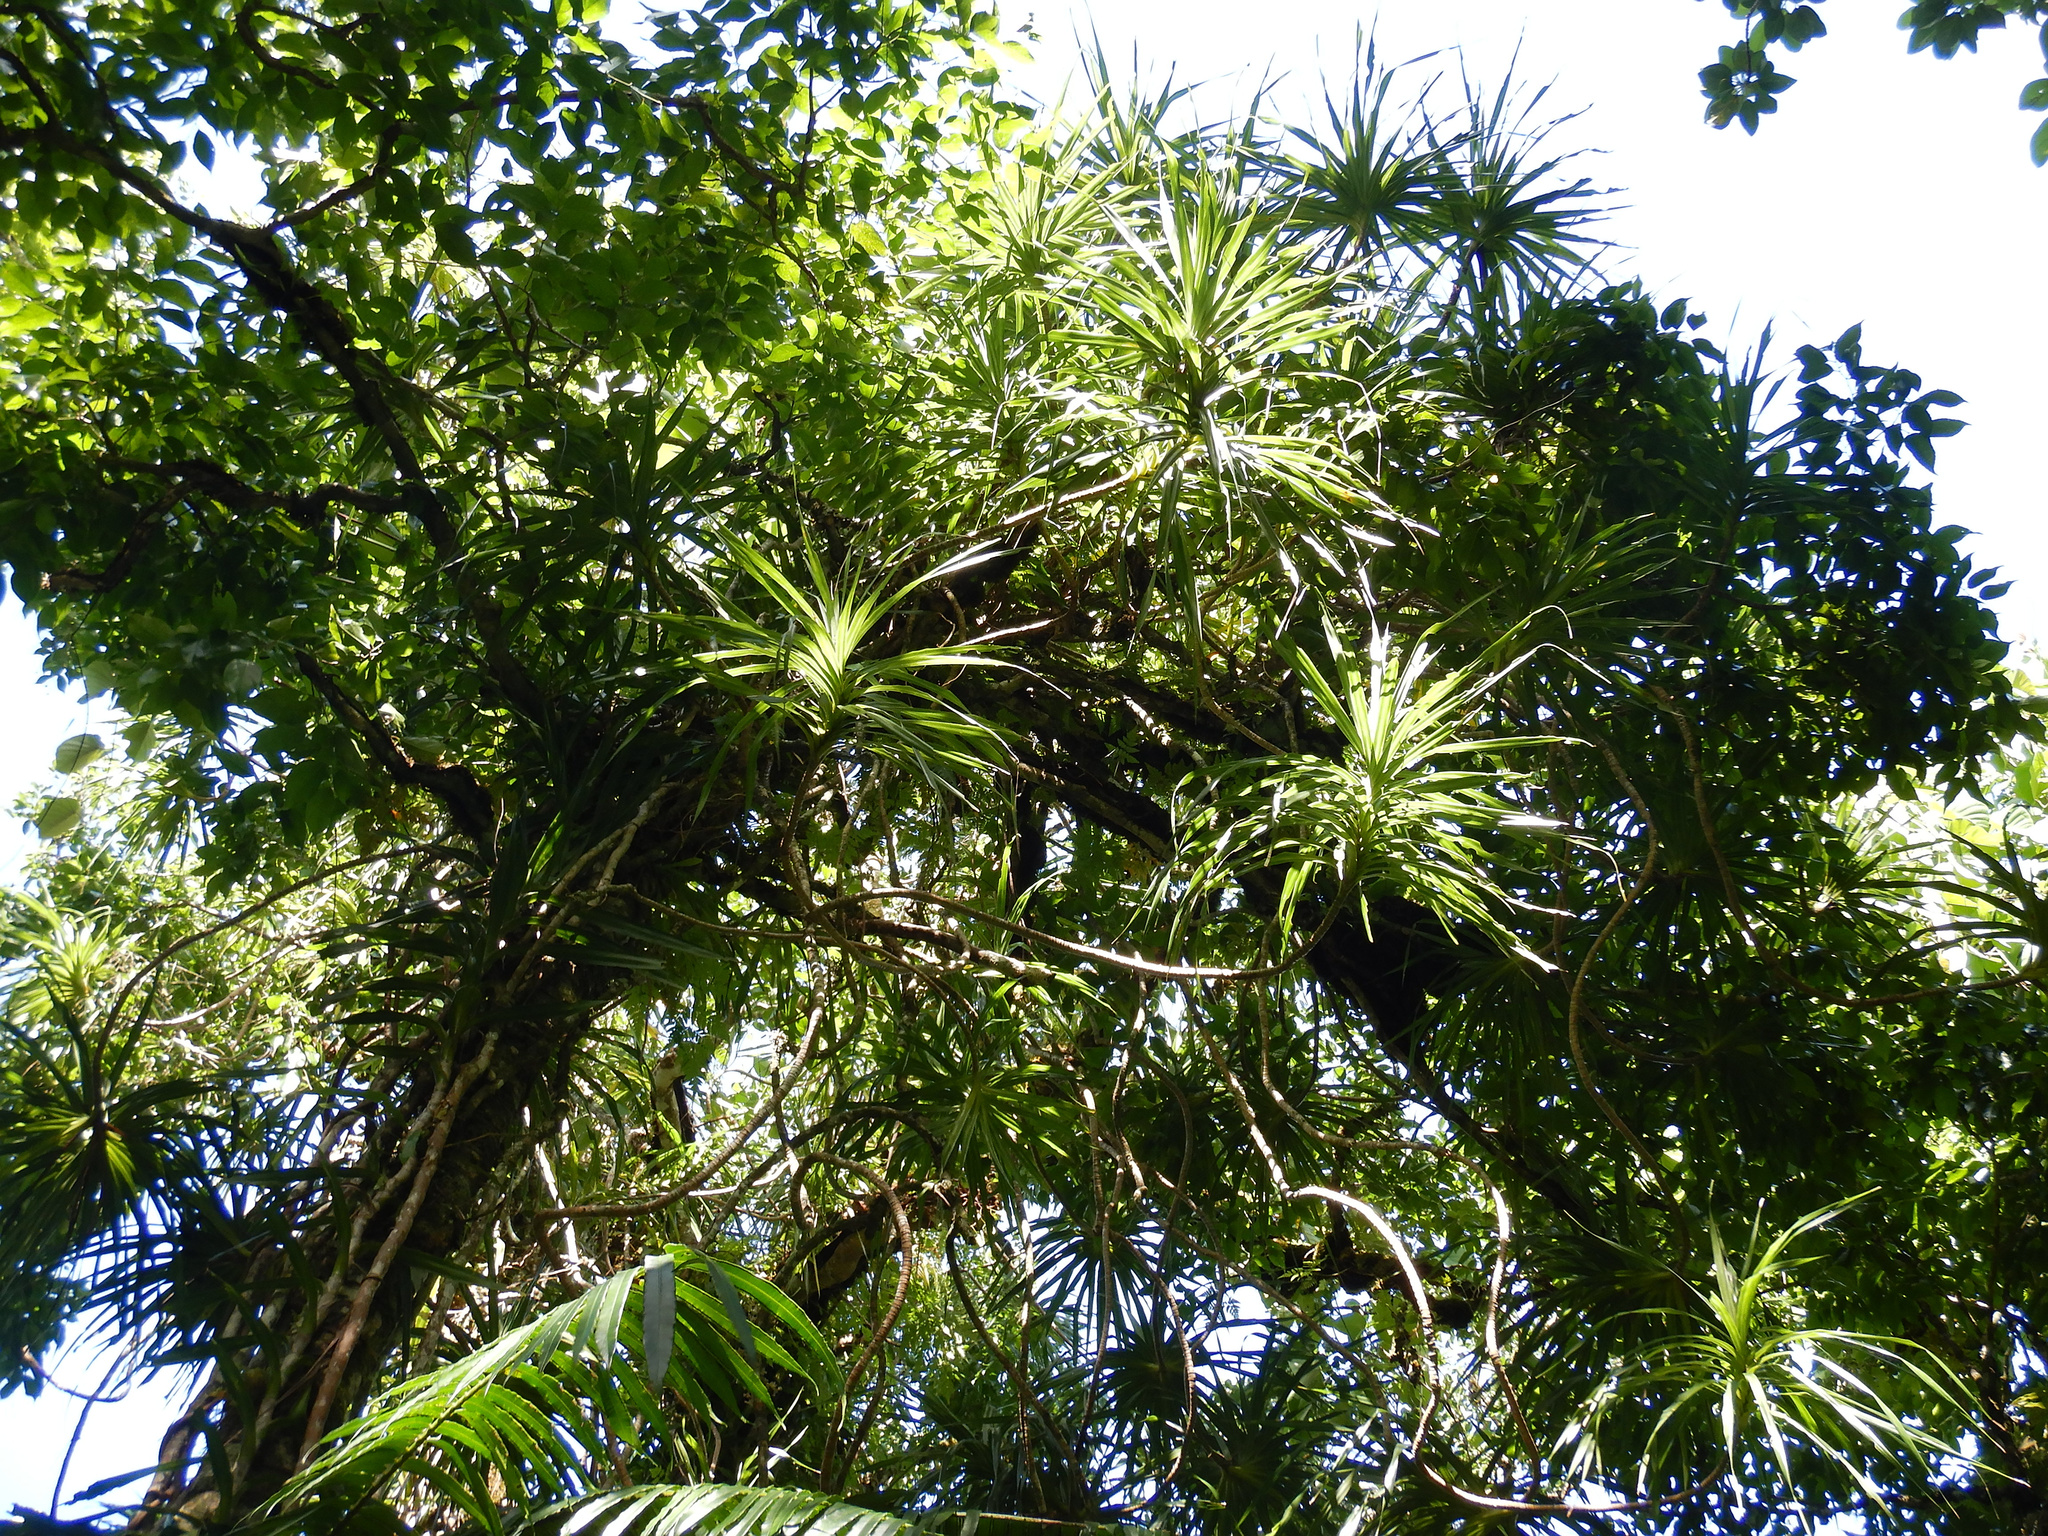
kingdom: Plantae
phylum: Tracheophyta
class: Liliopsida
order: Pandanales
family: Pandanaceae
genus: Freycinetia
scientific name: Freycinetia arborea
